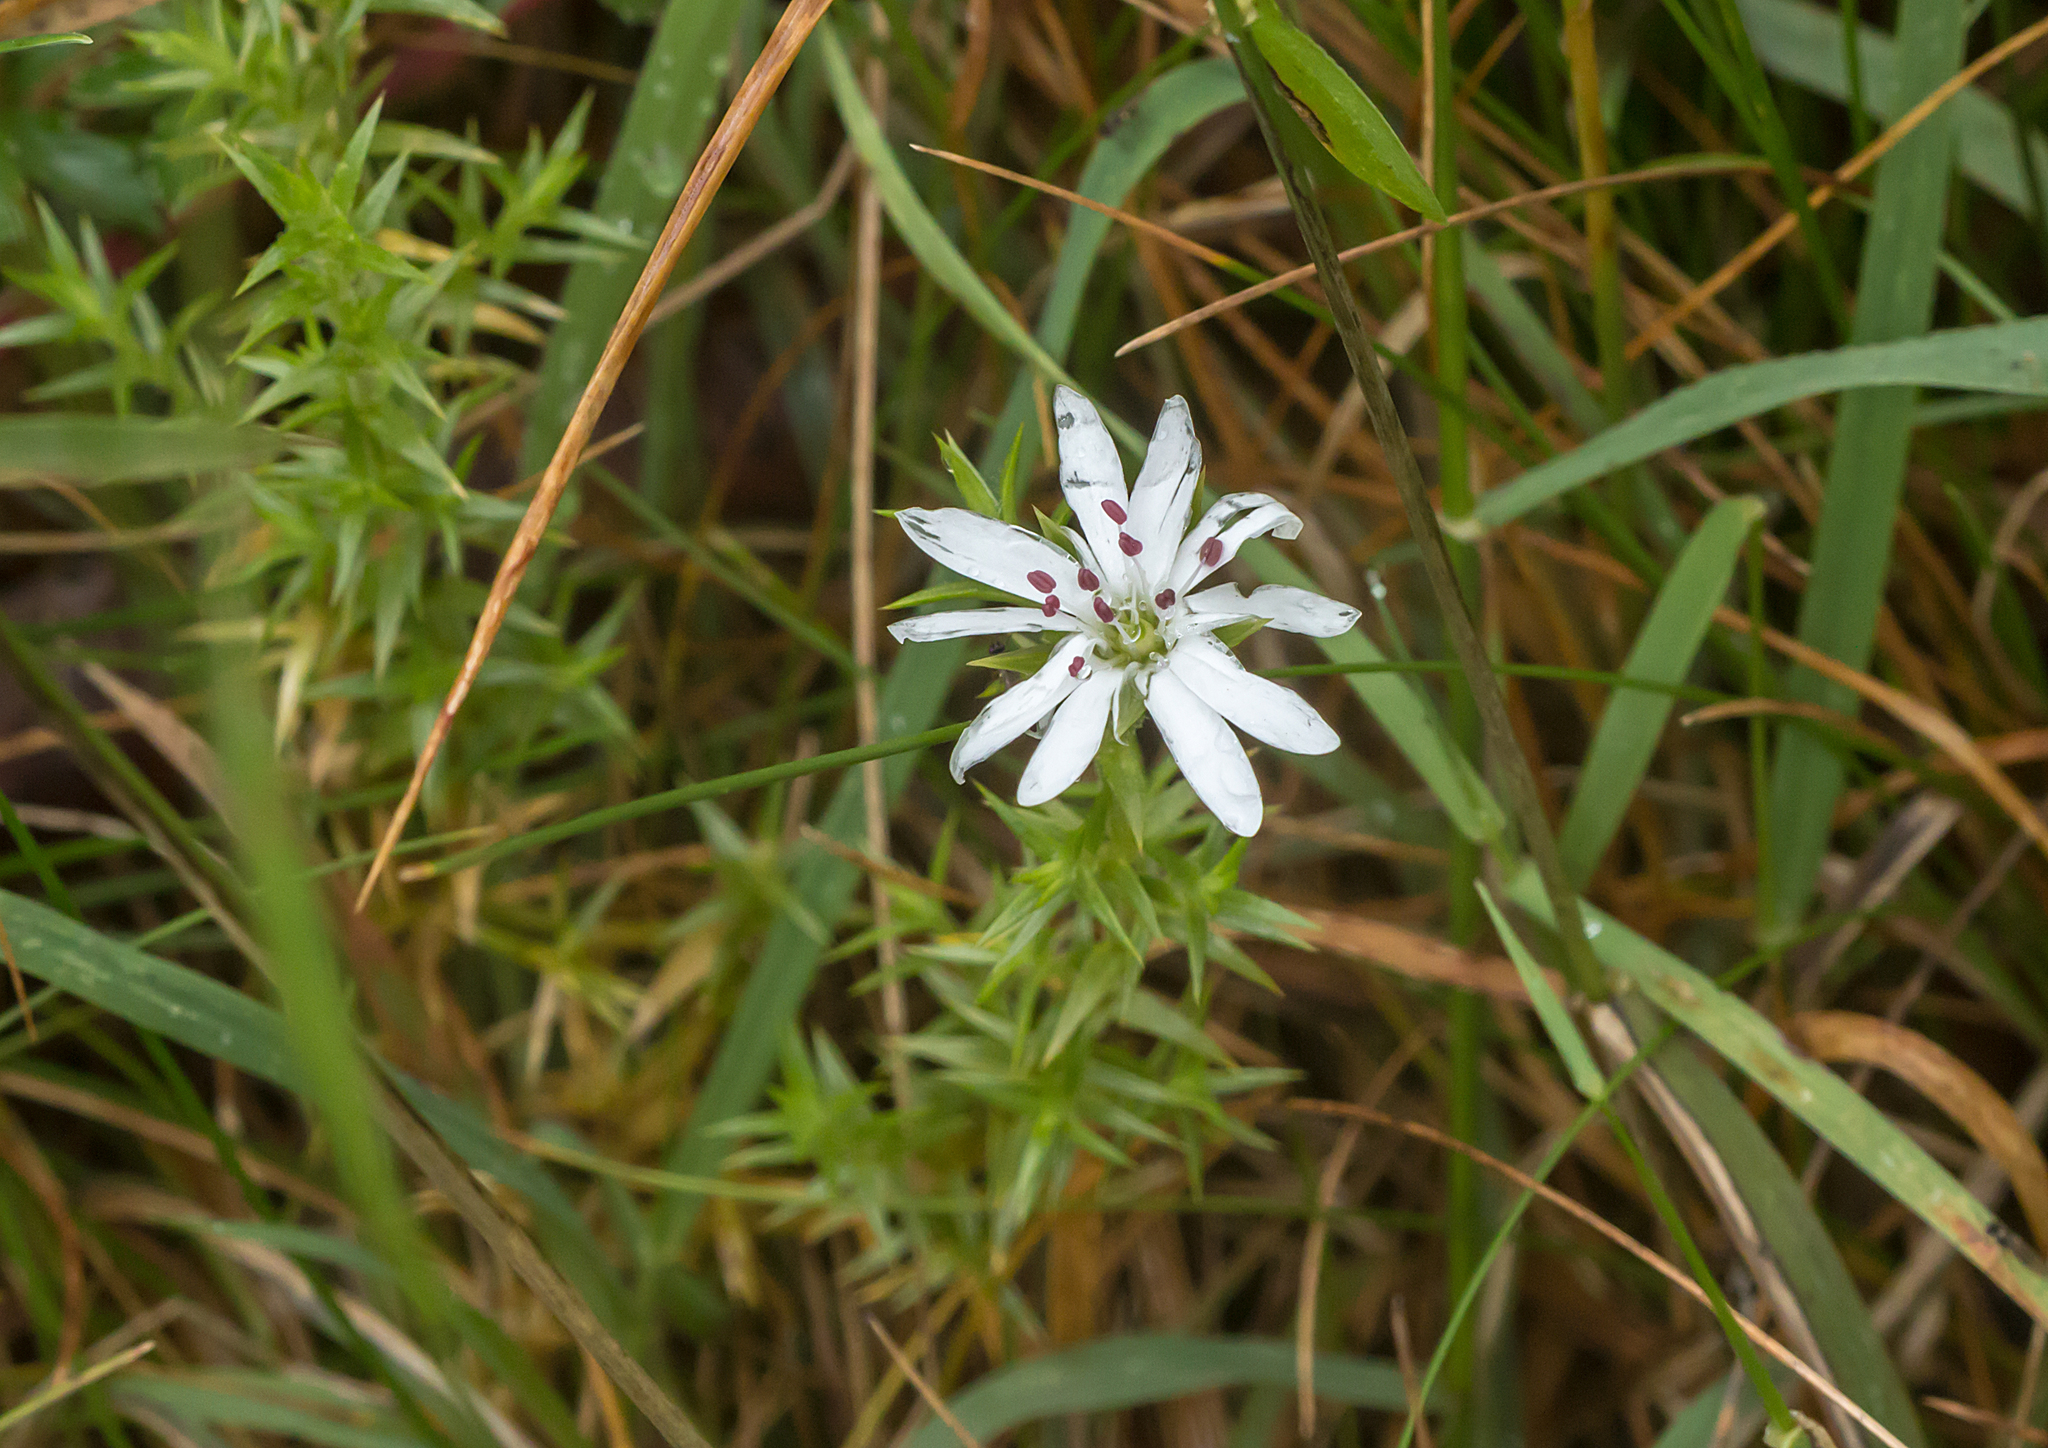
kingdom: Plantae
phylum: Tracheophyta
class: Magnoliopsida
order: Caryophyllales
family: Caryophyllaceae
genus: Stellaria
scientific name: Stellaria pungens
